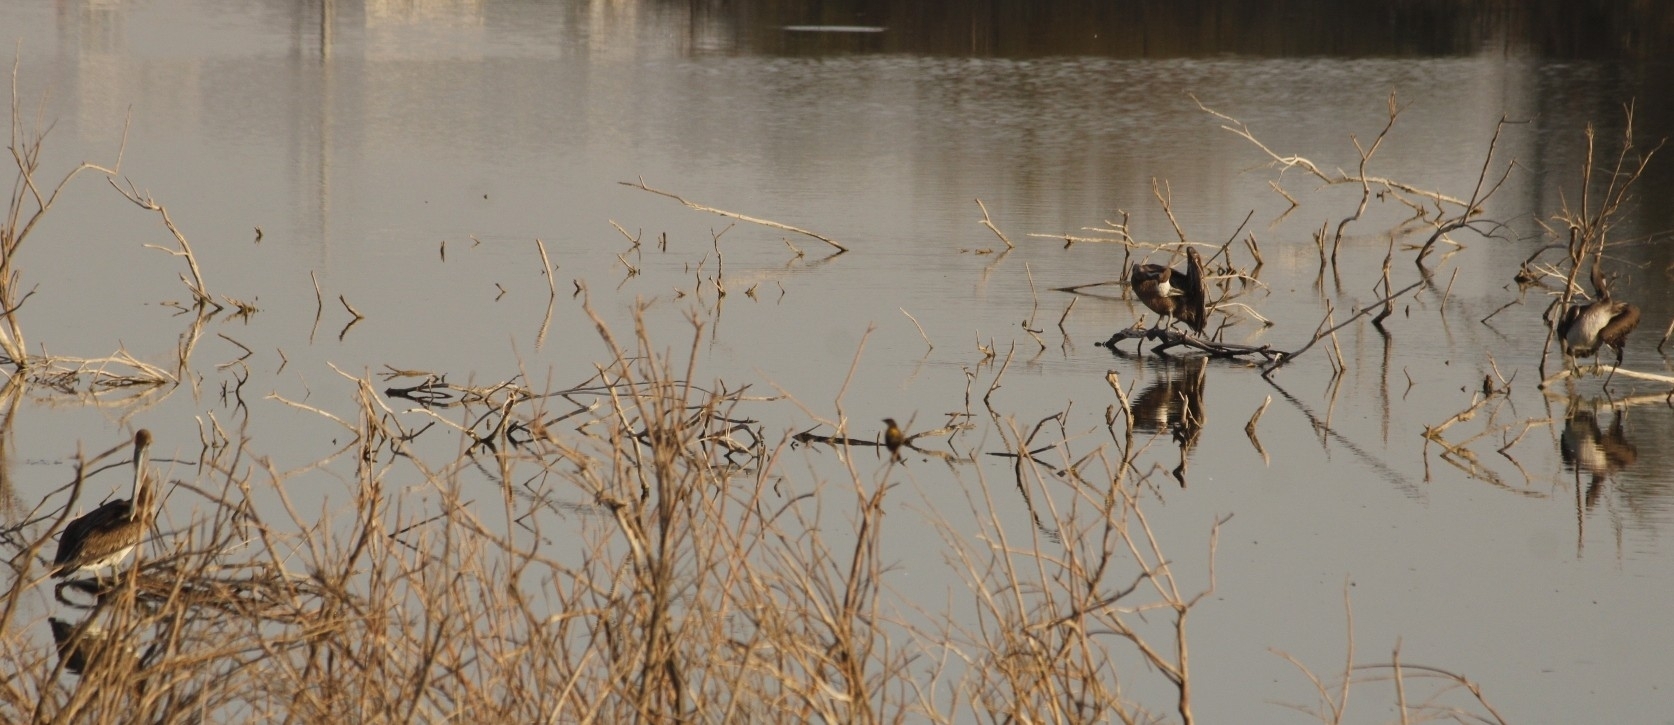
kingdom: Animalia
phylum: Chordata
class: Aves
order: Pelecaniformes
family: Pelecanidae
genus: Pelecanus
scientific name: Pelecanus occidentalis
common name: Brown pelican
